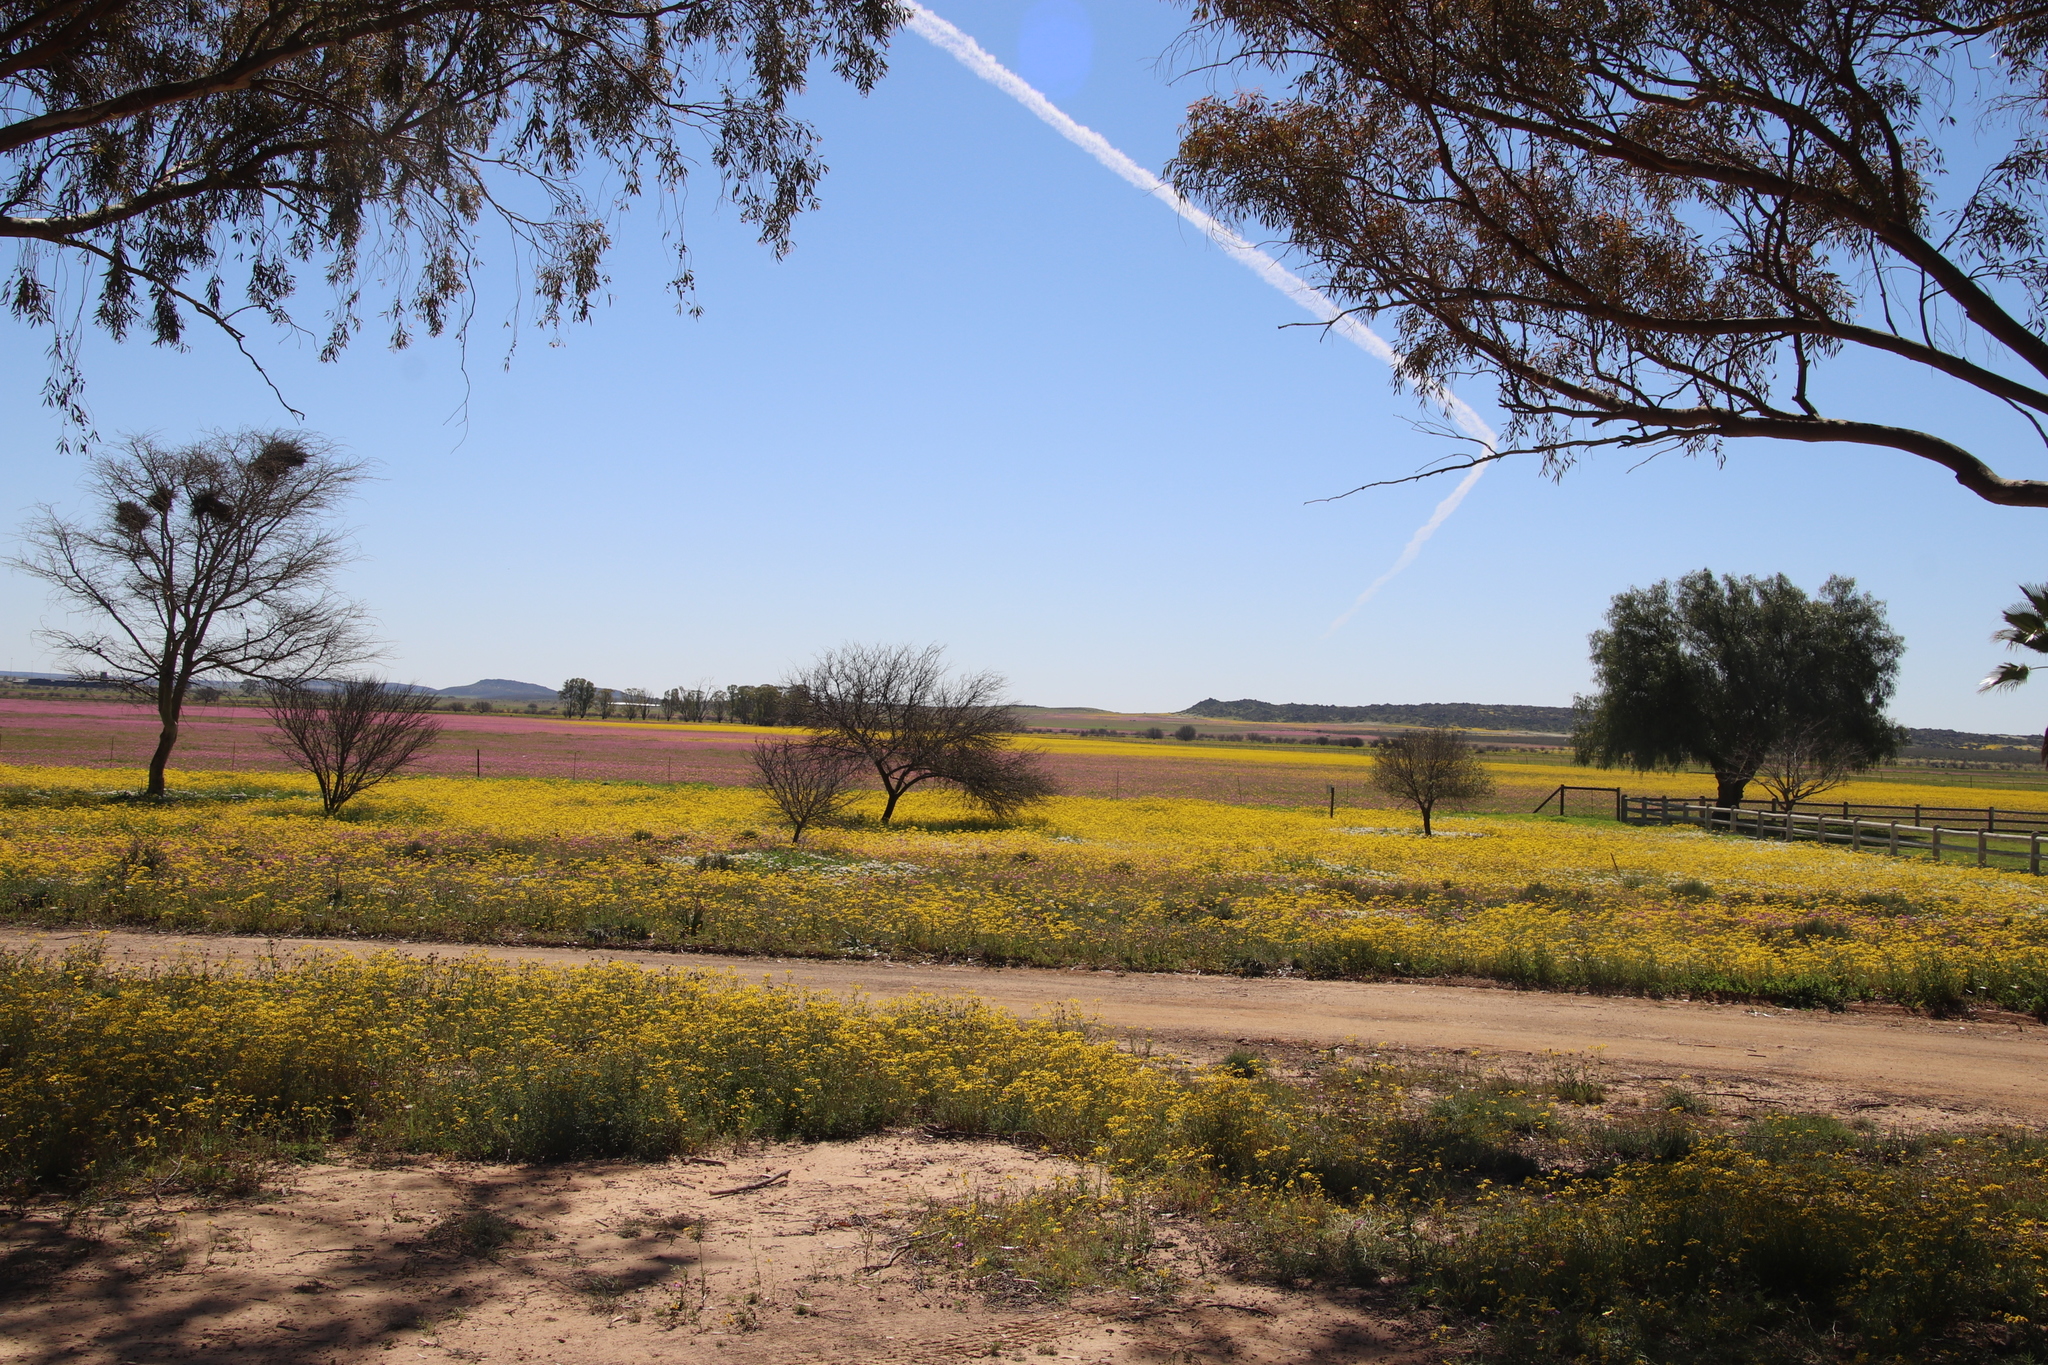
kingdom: Plantae
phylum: Tracheophyta
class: Magnoliopsida
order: Asterales
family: Asteraceae
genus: Senecio
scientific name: Senecio abruptus
